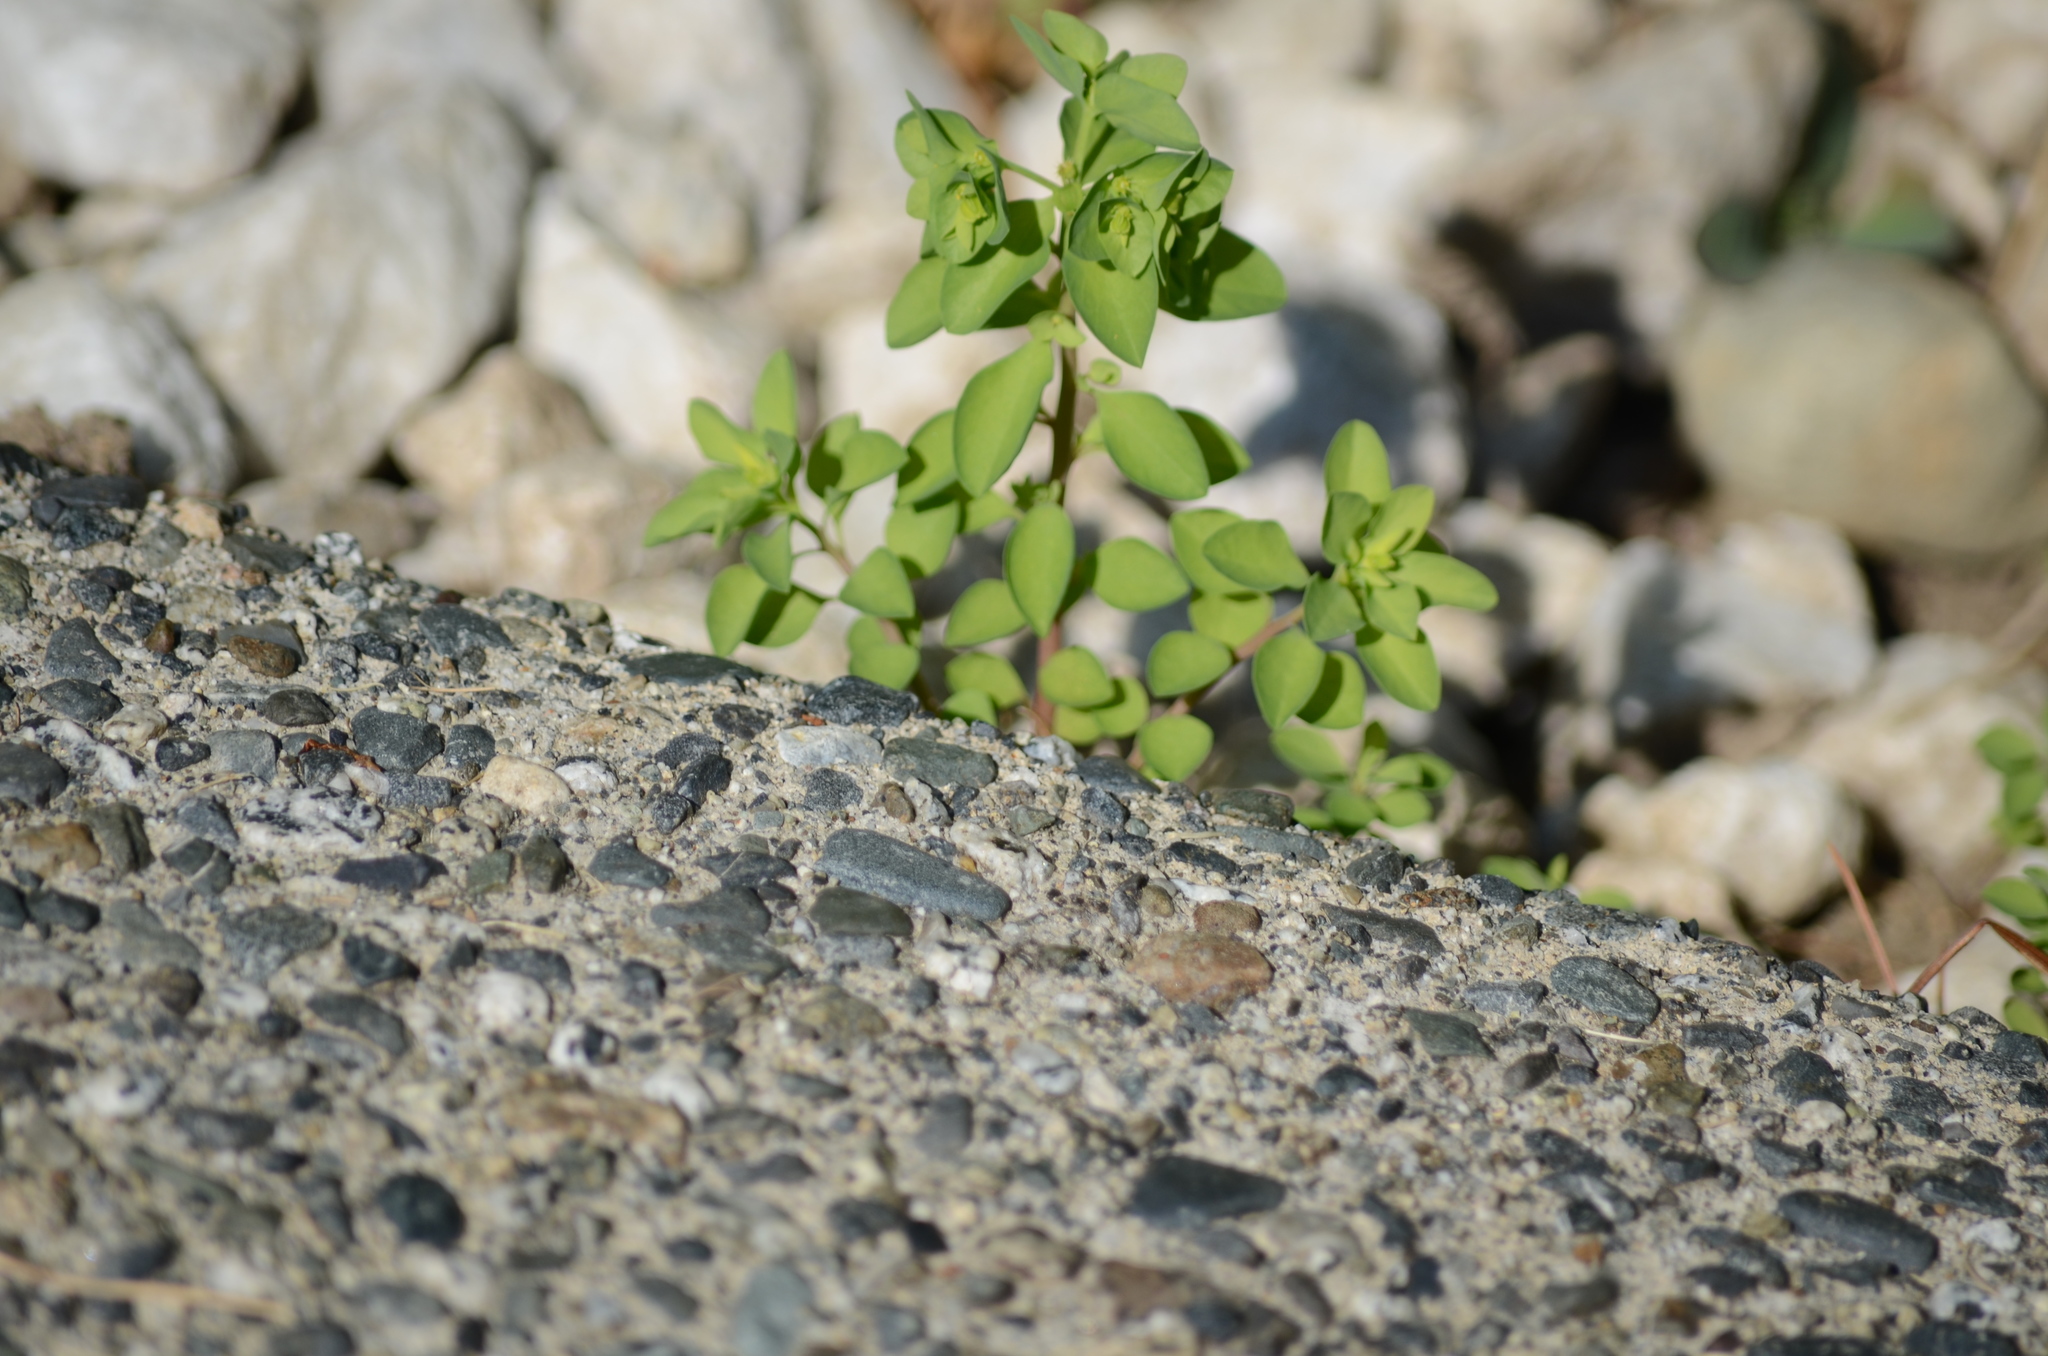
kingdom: Plantae
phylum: Tracheophyta
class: Magnoliopsida
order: Malpighiales
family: Euphorbiaceae
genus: Euphorbia
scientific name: Euphorbia peplus
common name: Petty spurge
